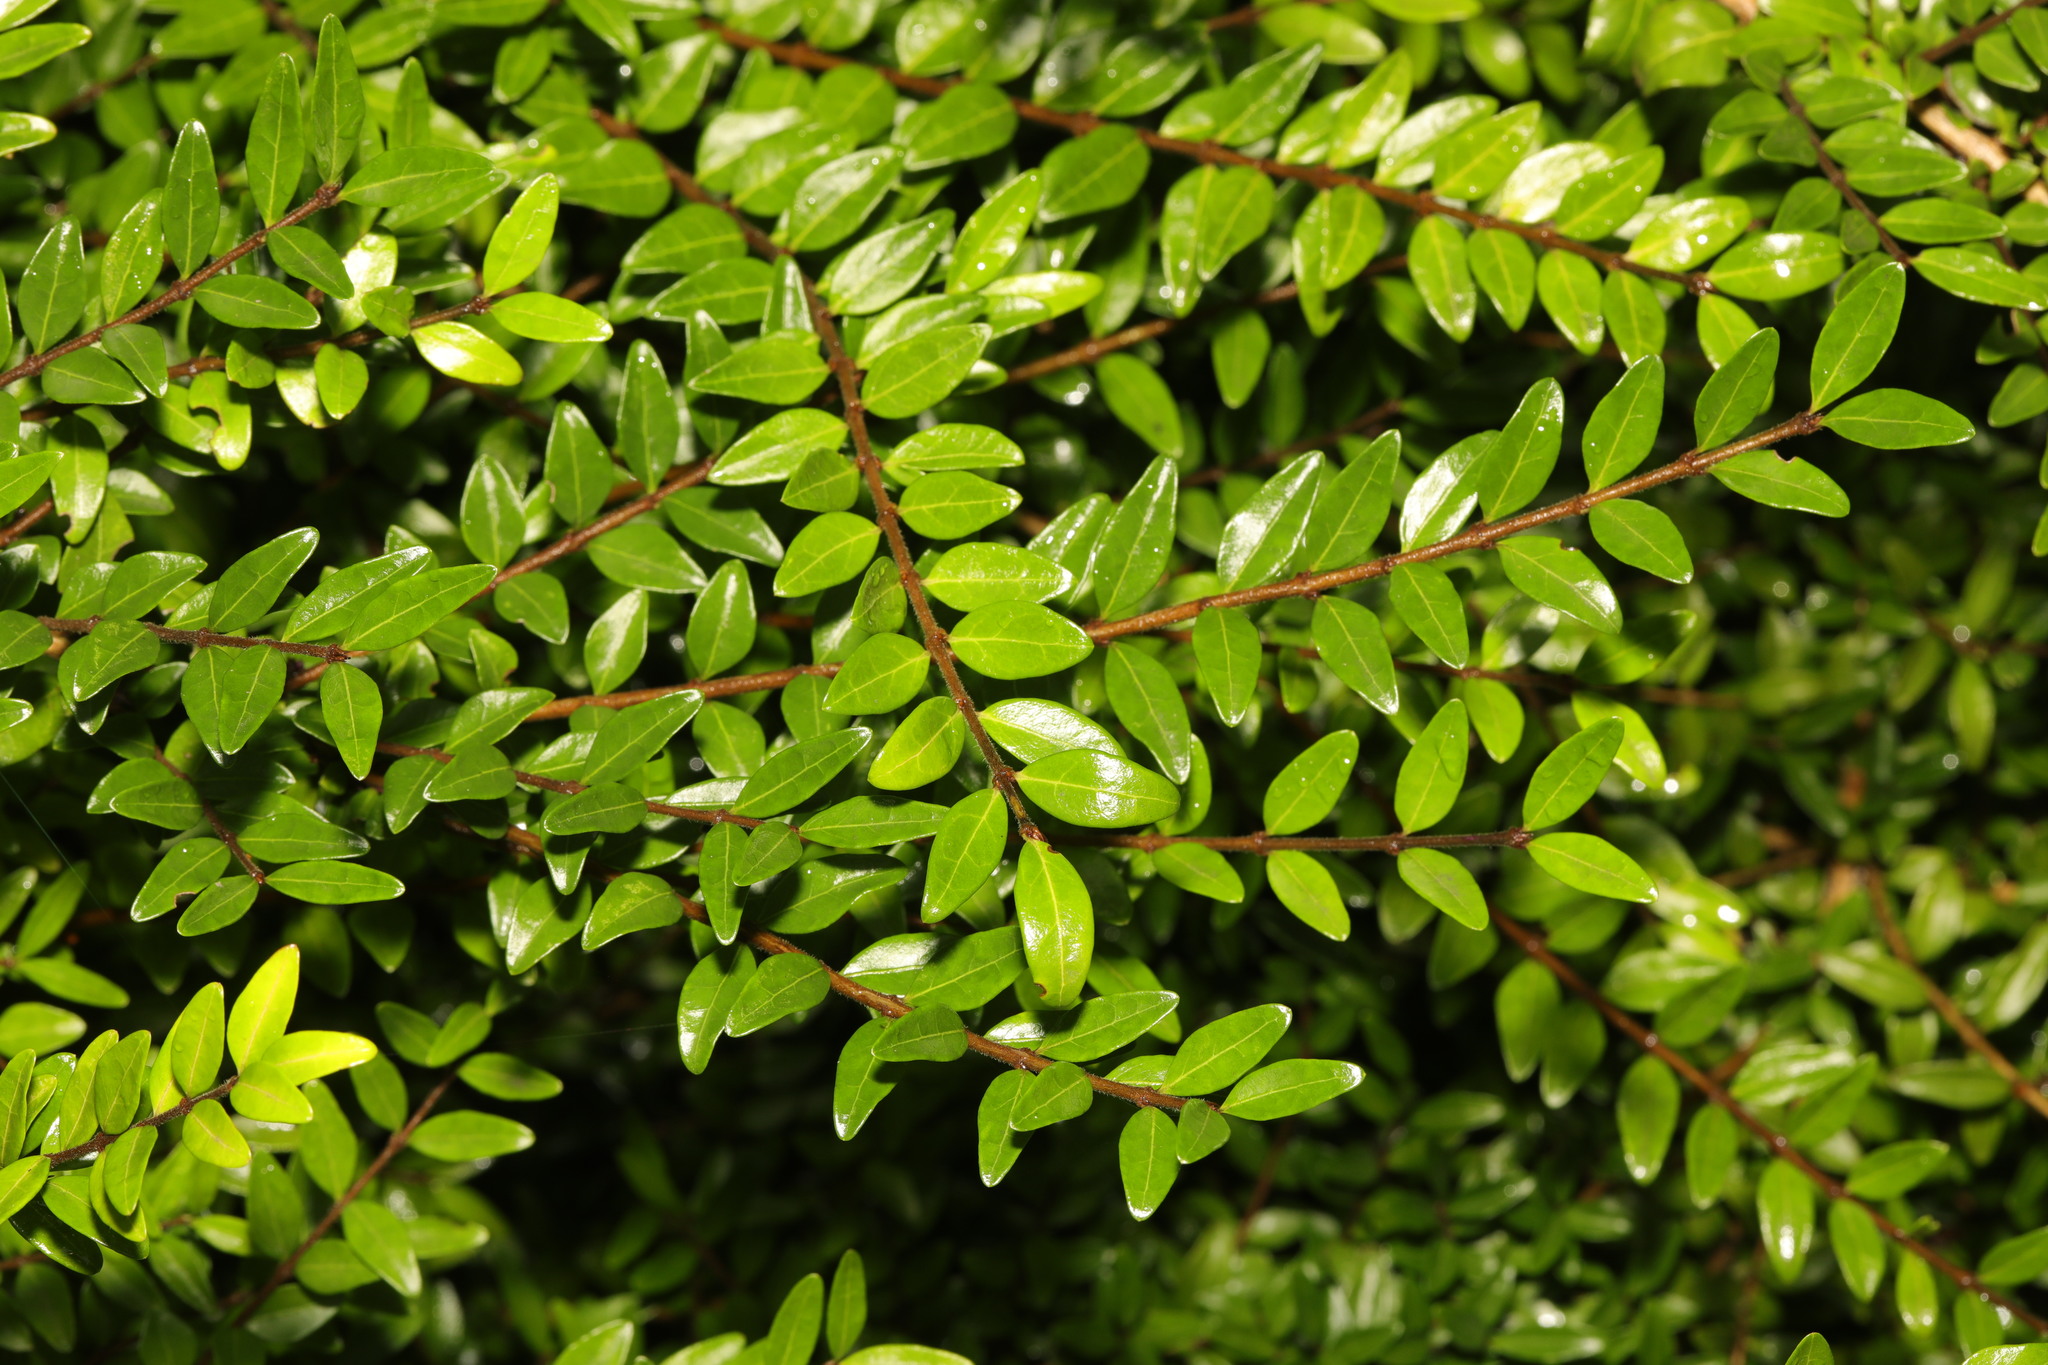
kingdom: Plantae
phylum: Tracheophyta
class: Magnoliopsida
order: Dipsacales
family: Caprifoliaceae
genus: Lonicera
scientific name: Lonicera pileata
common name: Box-leaved honeysuckle
